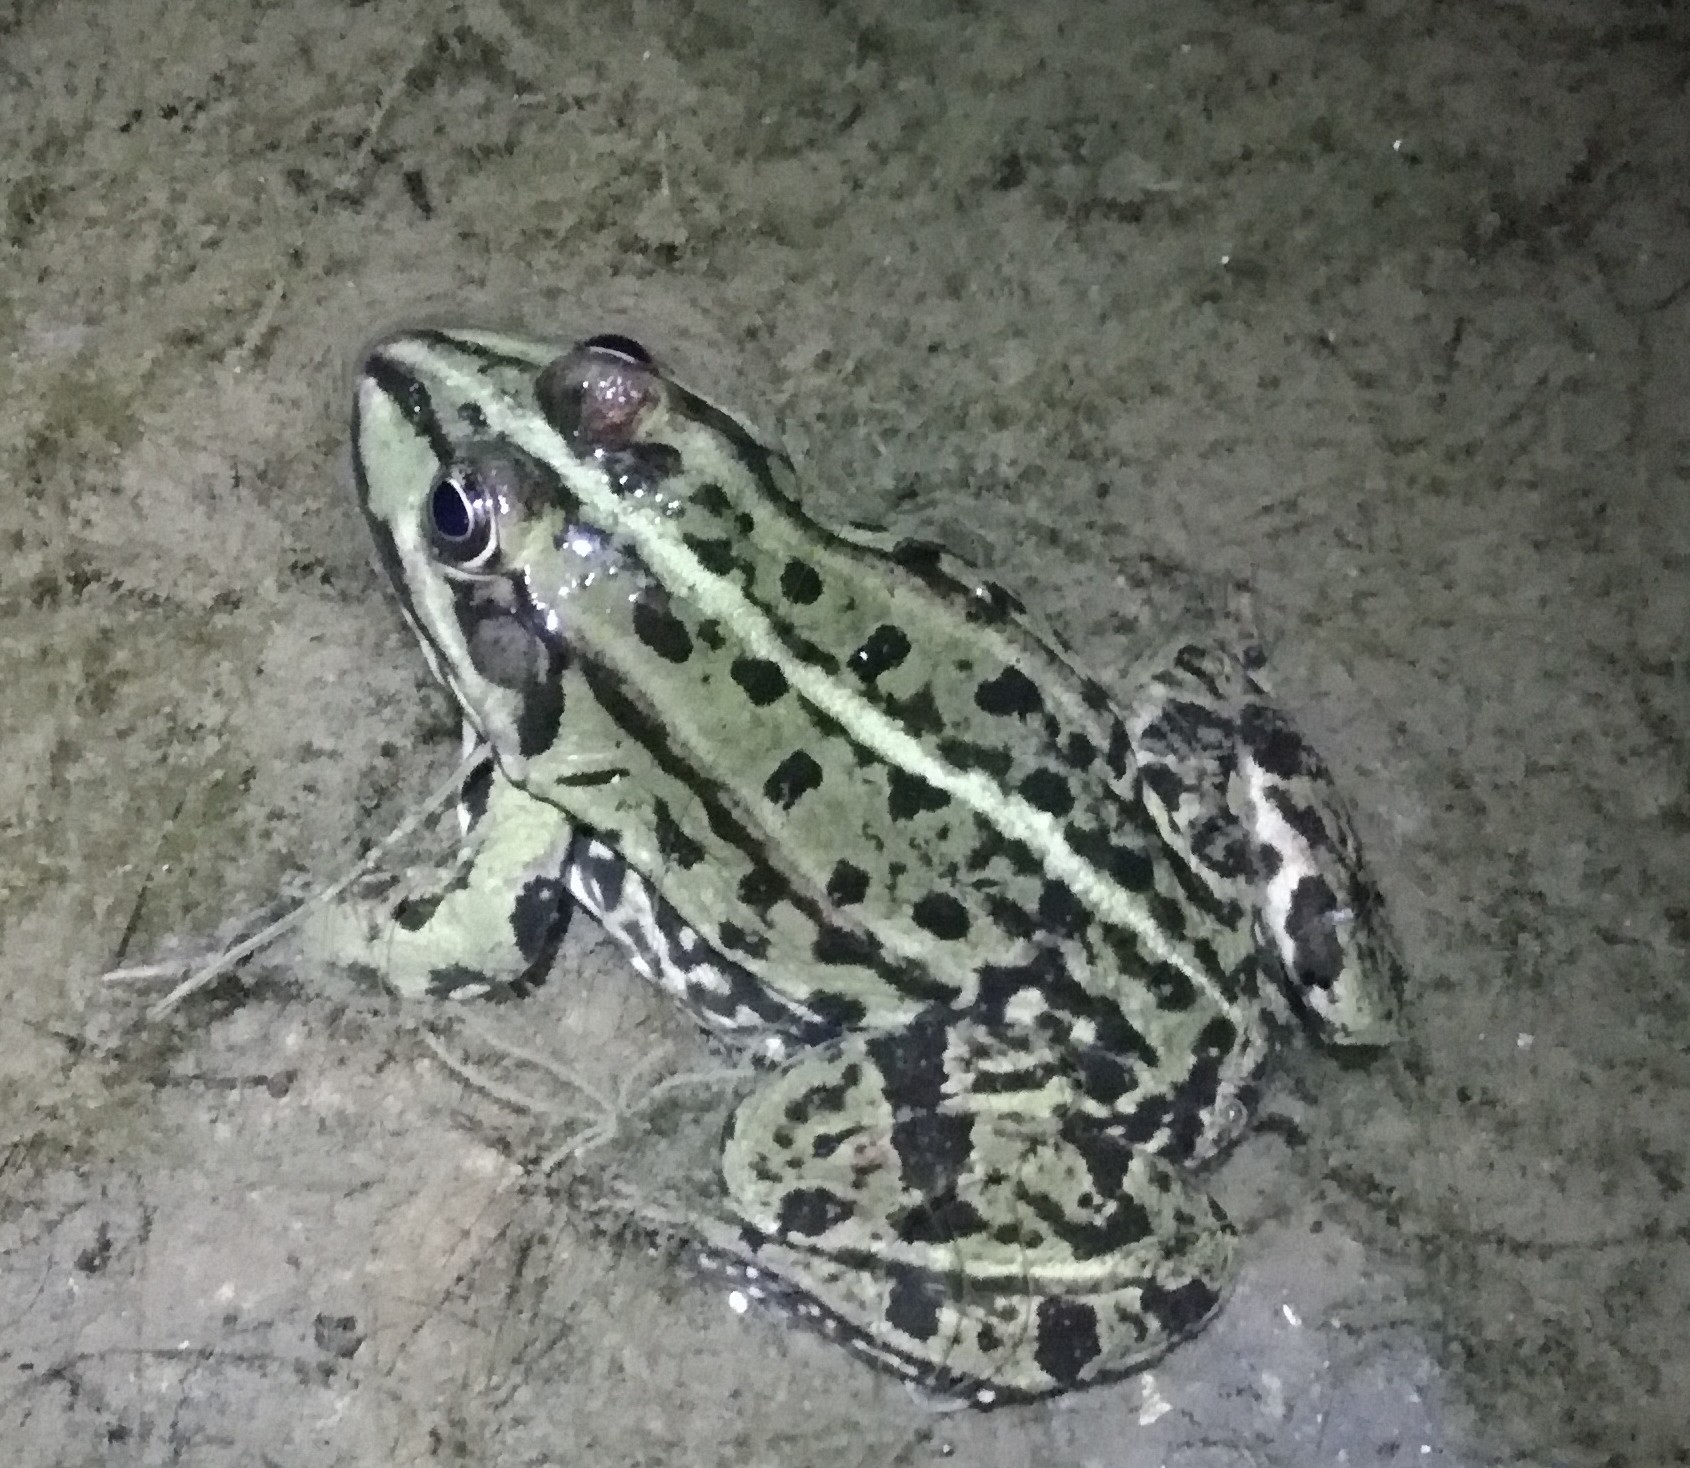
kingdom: Animalia
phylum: Chordata
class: Amphibia
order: Anura
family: Ranidae
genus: Pelophylax
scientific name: Pelophylax
